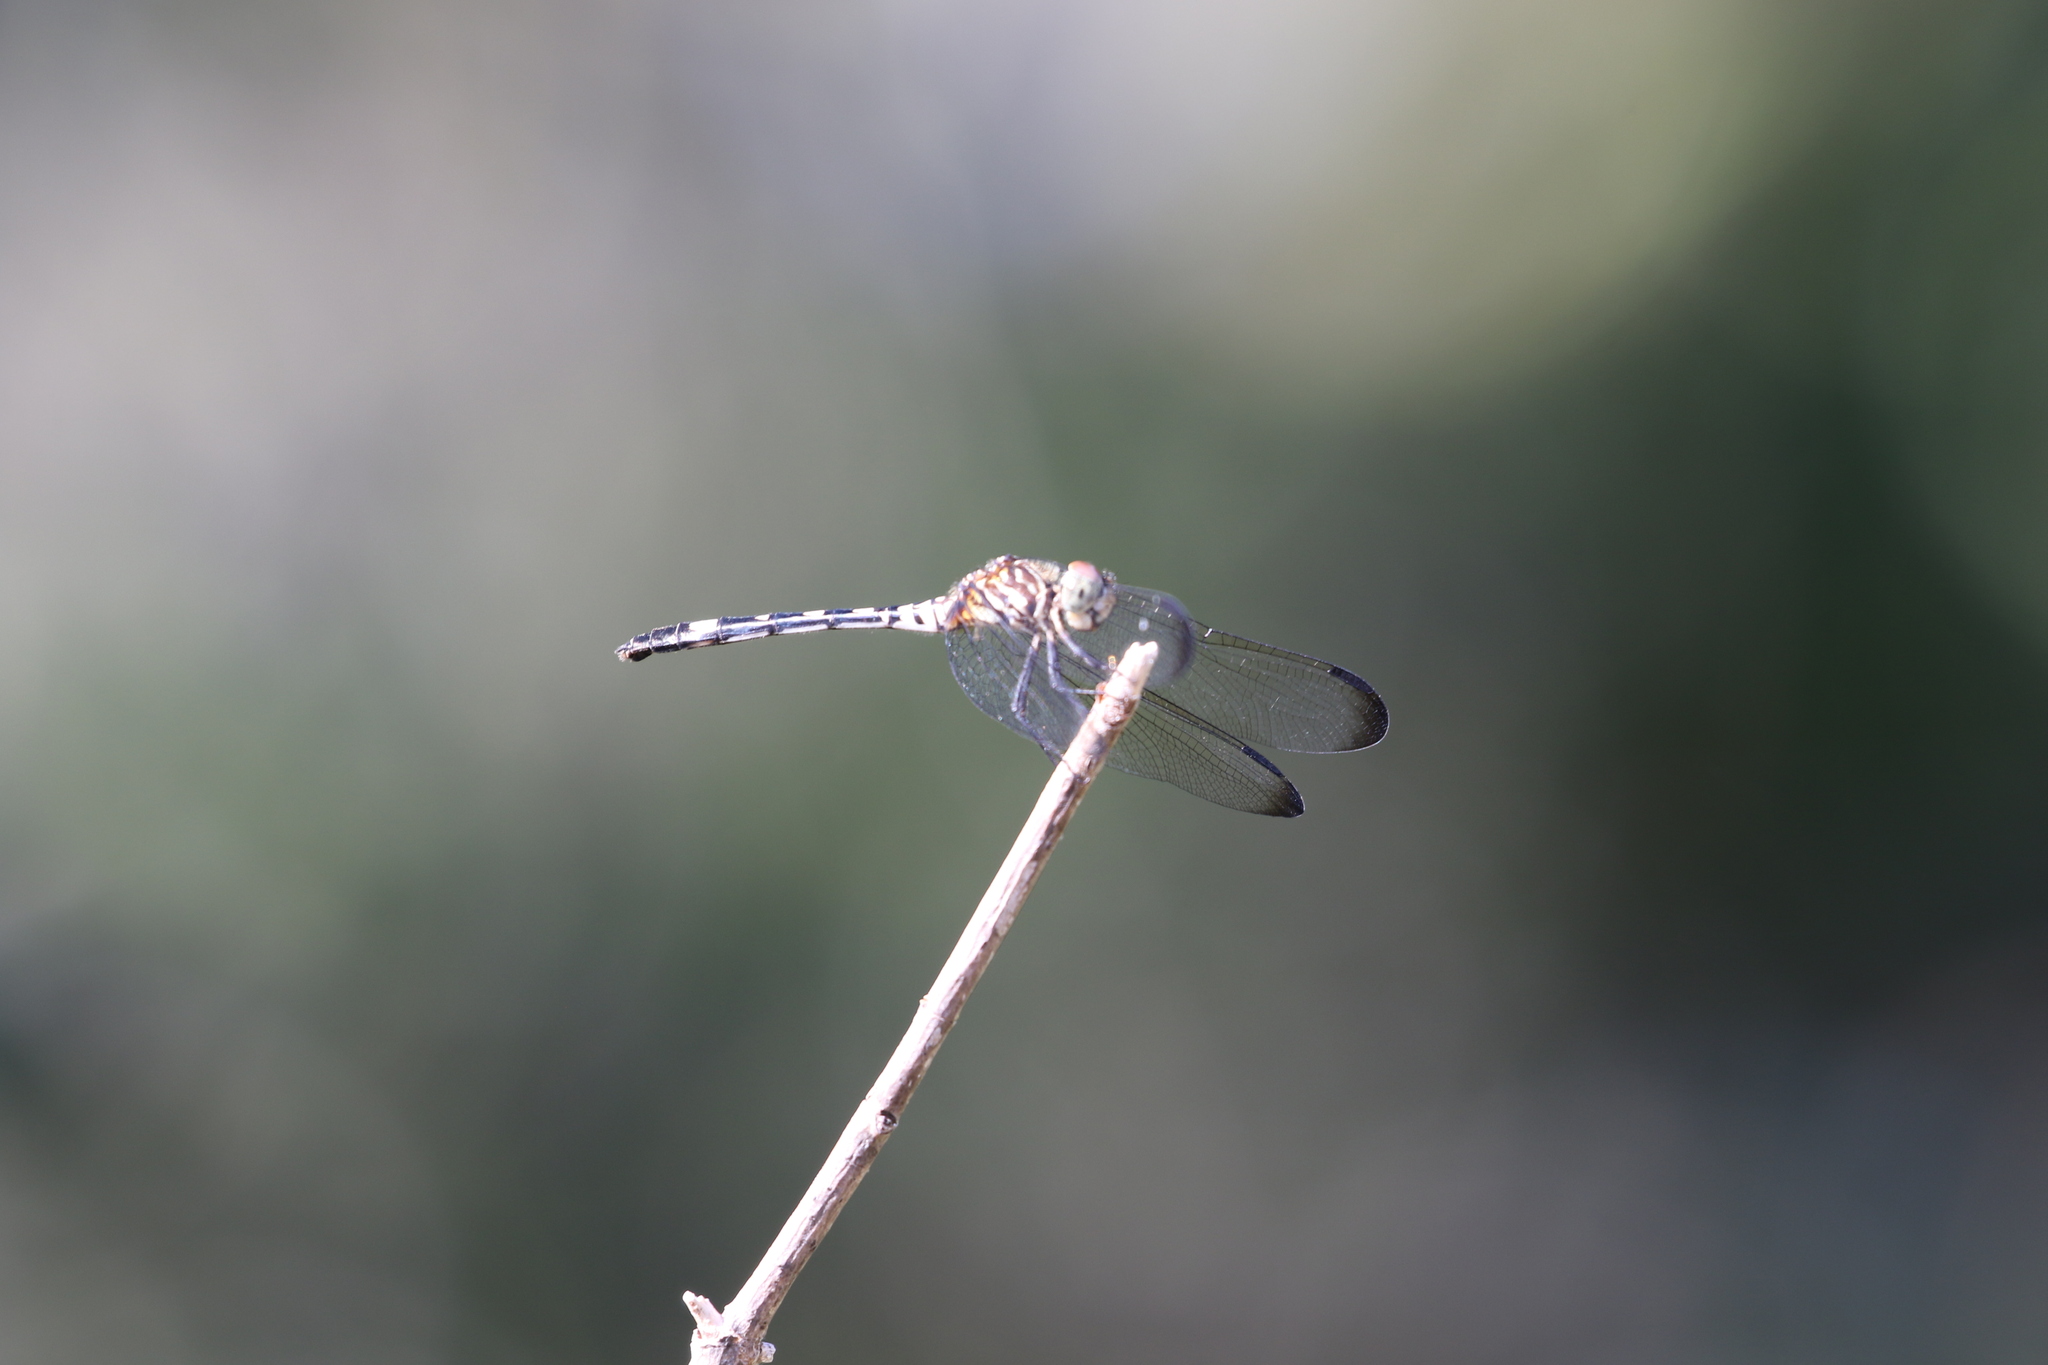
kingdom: Animalia
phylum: Arthropoda
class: Insecta
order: Odonata
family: Libellulidae
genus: Dythemis
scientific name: Dythemis velox
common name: Swift setwing
